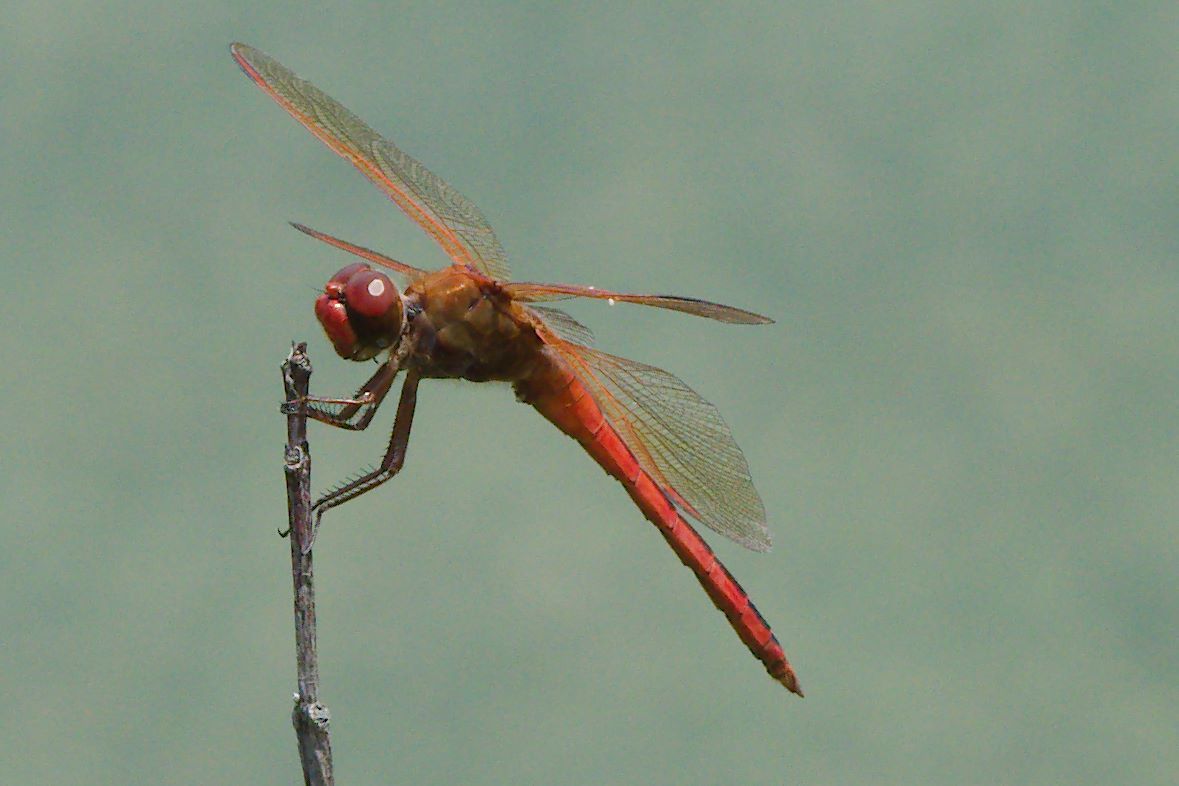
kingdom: Animalia
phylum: Arthropoda
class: Insecta
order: Odonata
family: Libellulidae
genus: Libellula
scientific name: Libellula needhami
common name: Needham's skimmer
